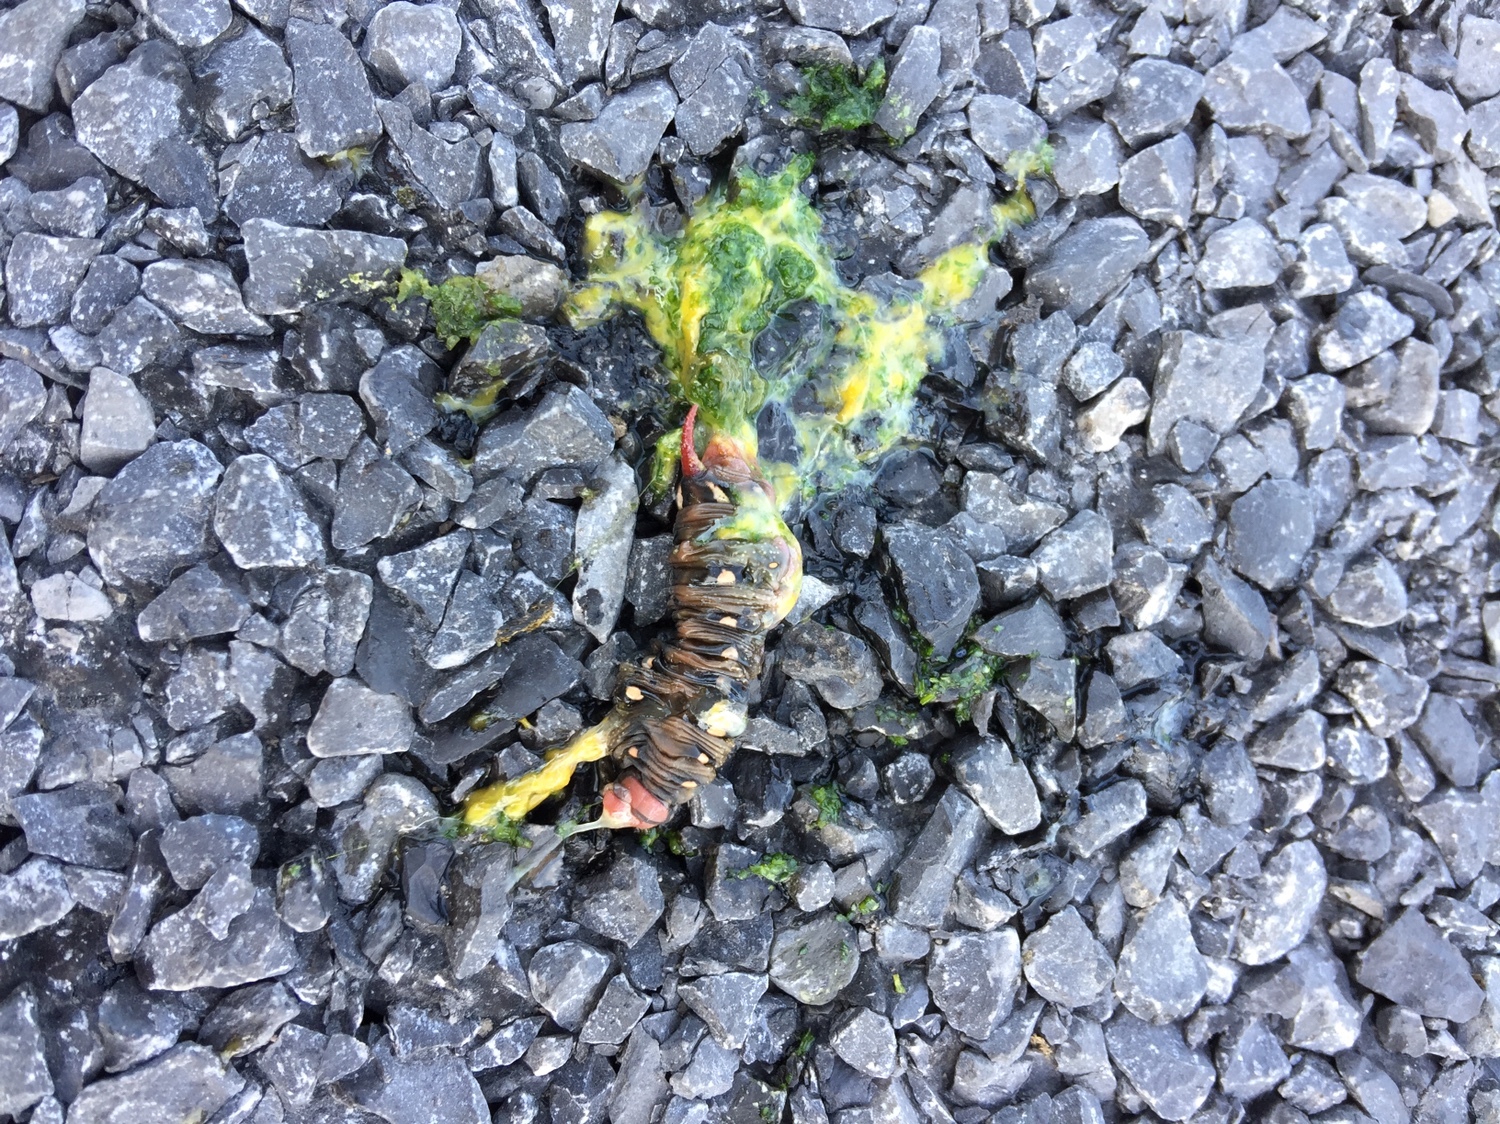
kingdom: Animalia
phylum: Arthropoda
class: Insecta
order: Lepidoptera
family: Sphingidae
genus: Hyles
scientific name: Hyles gallii
